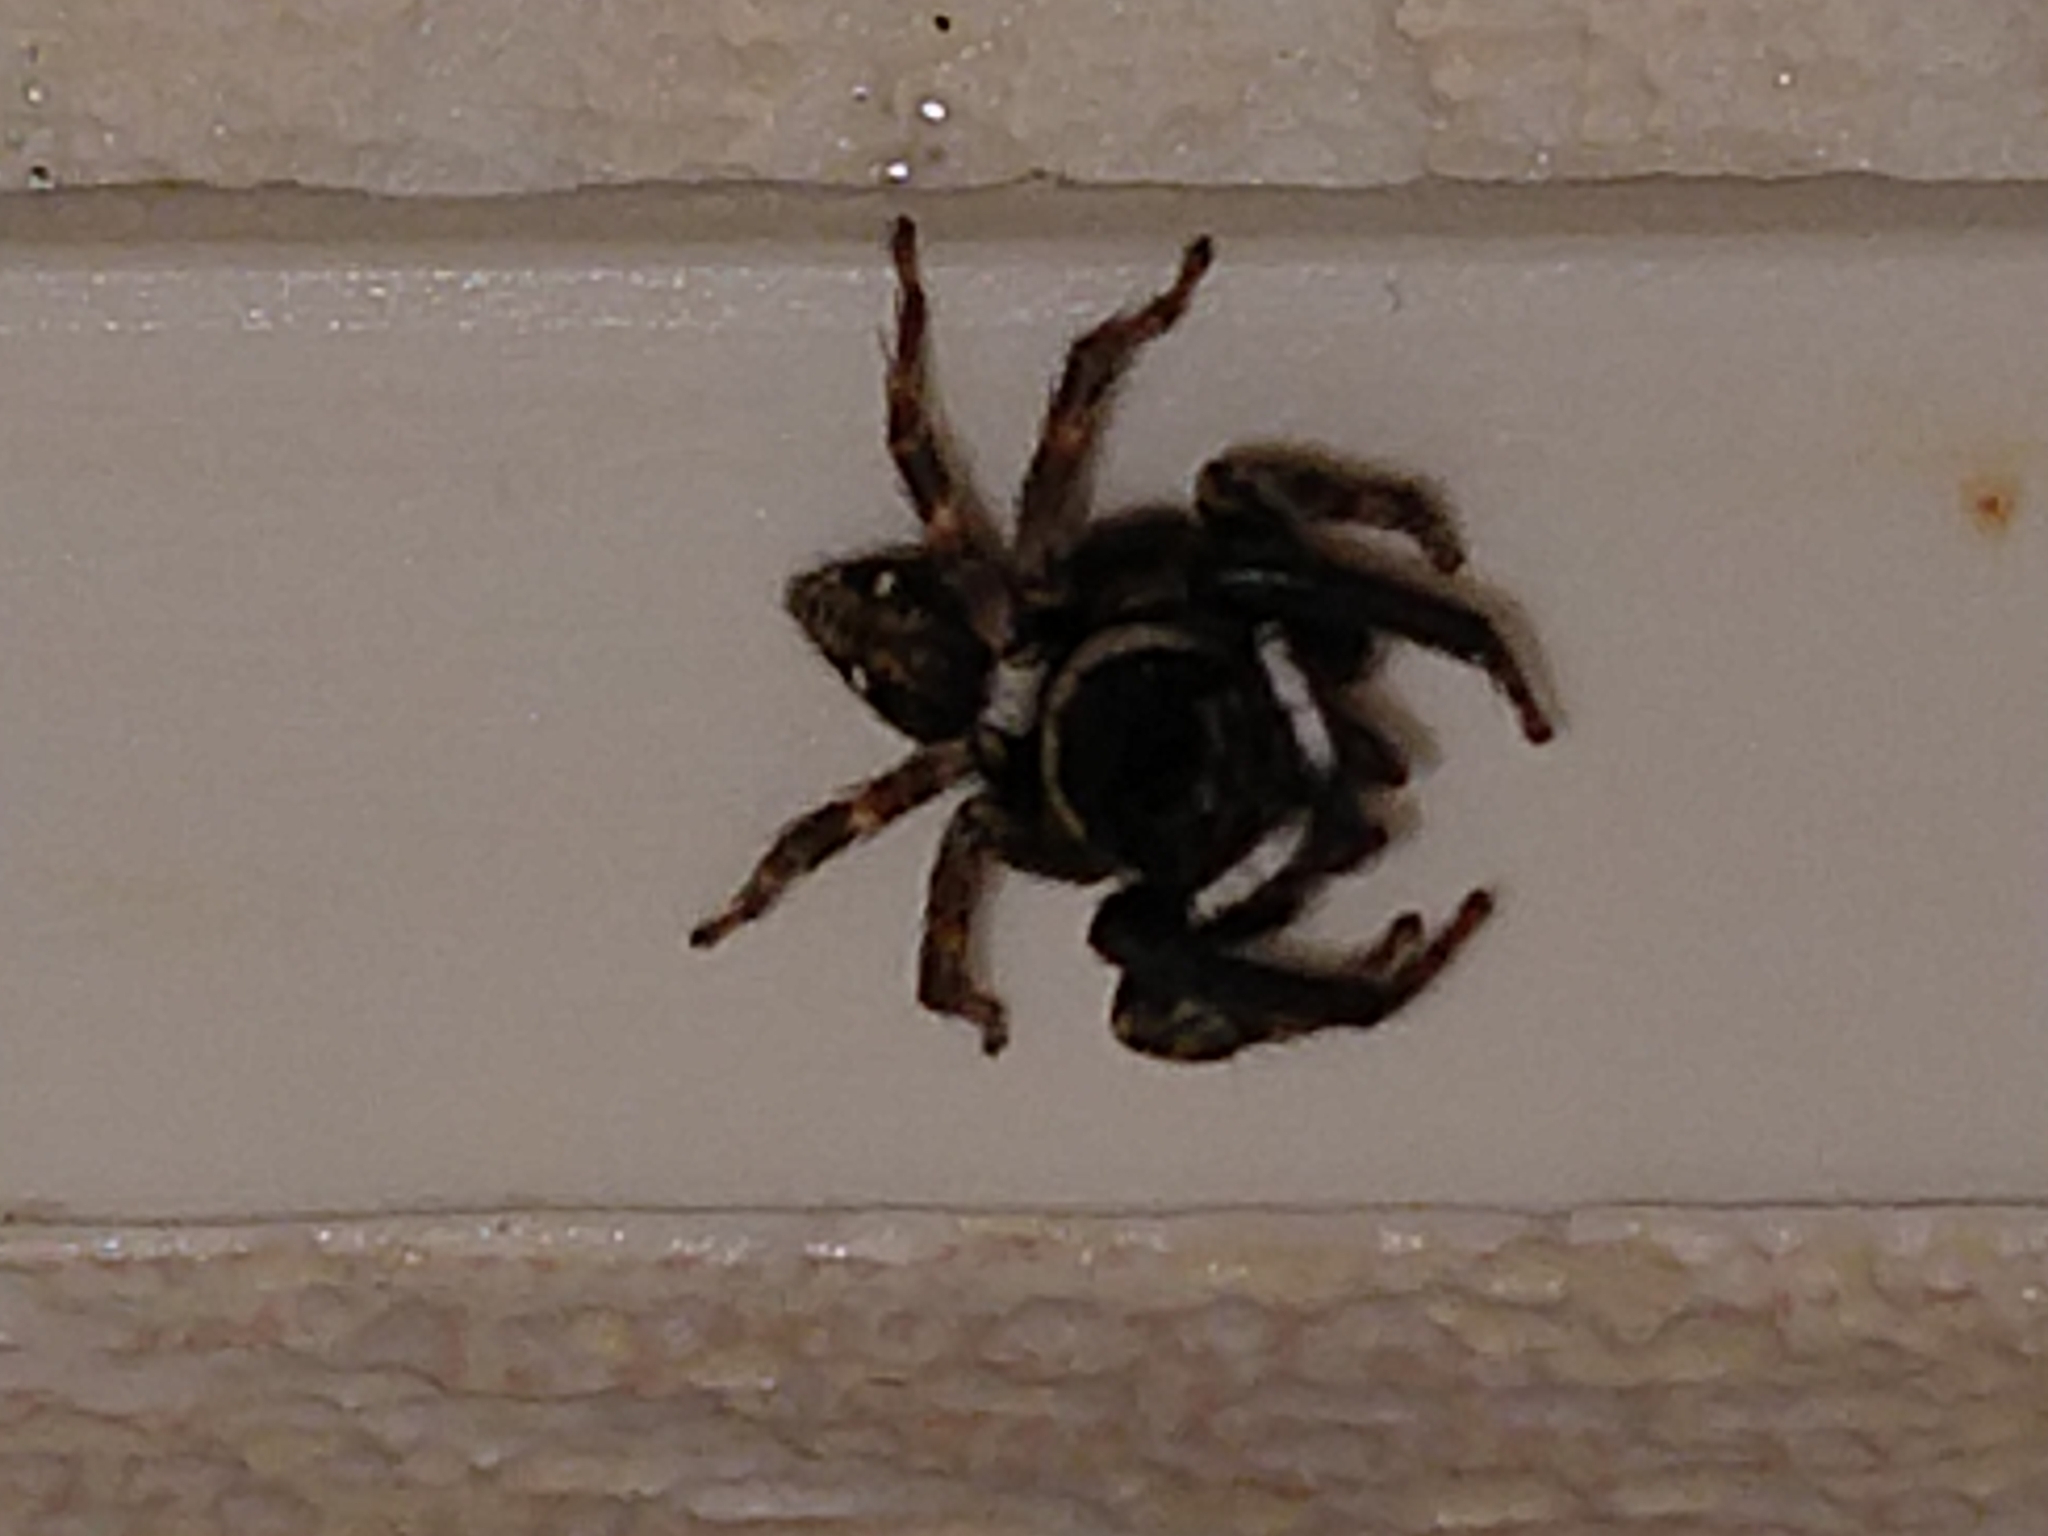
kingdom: Animalia
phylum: Arthropoda
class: Arachnida
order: Araneae
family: Salticidae
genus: Hasarius
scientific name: Hasarius adansoni
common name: Jumping spider
